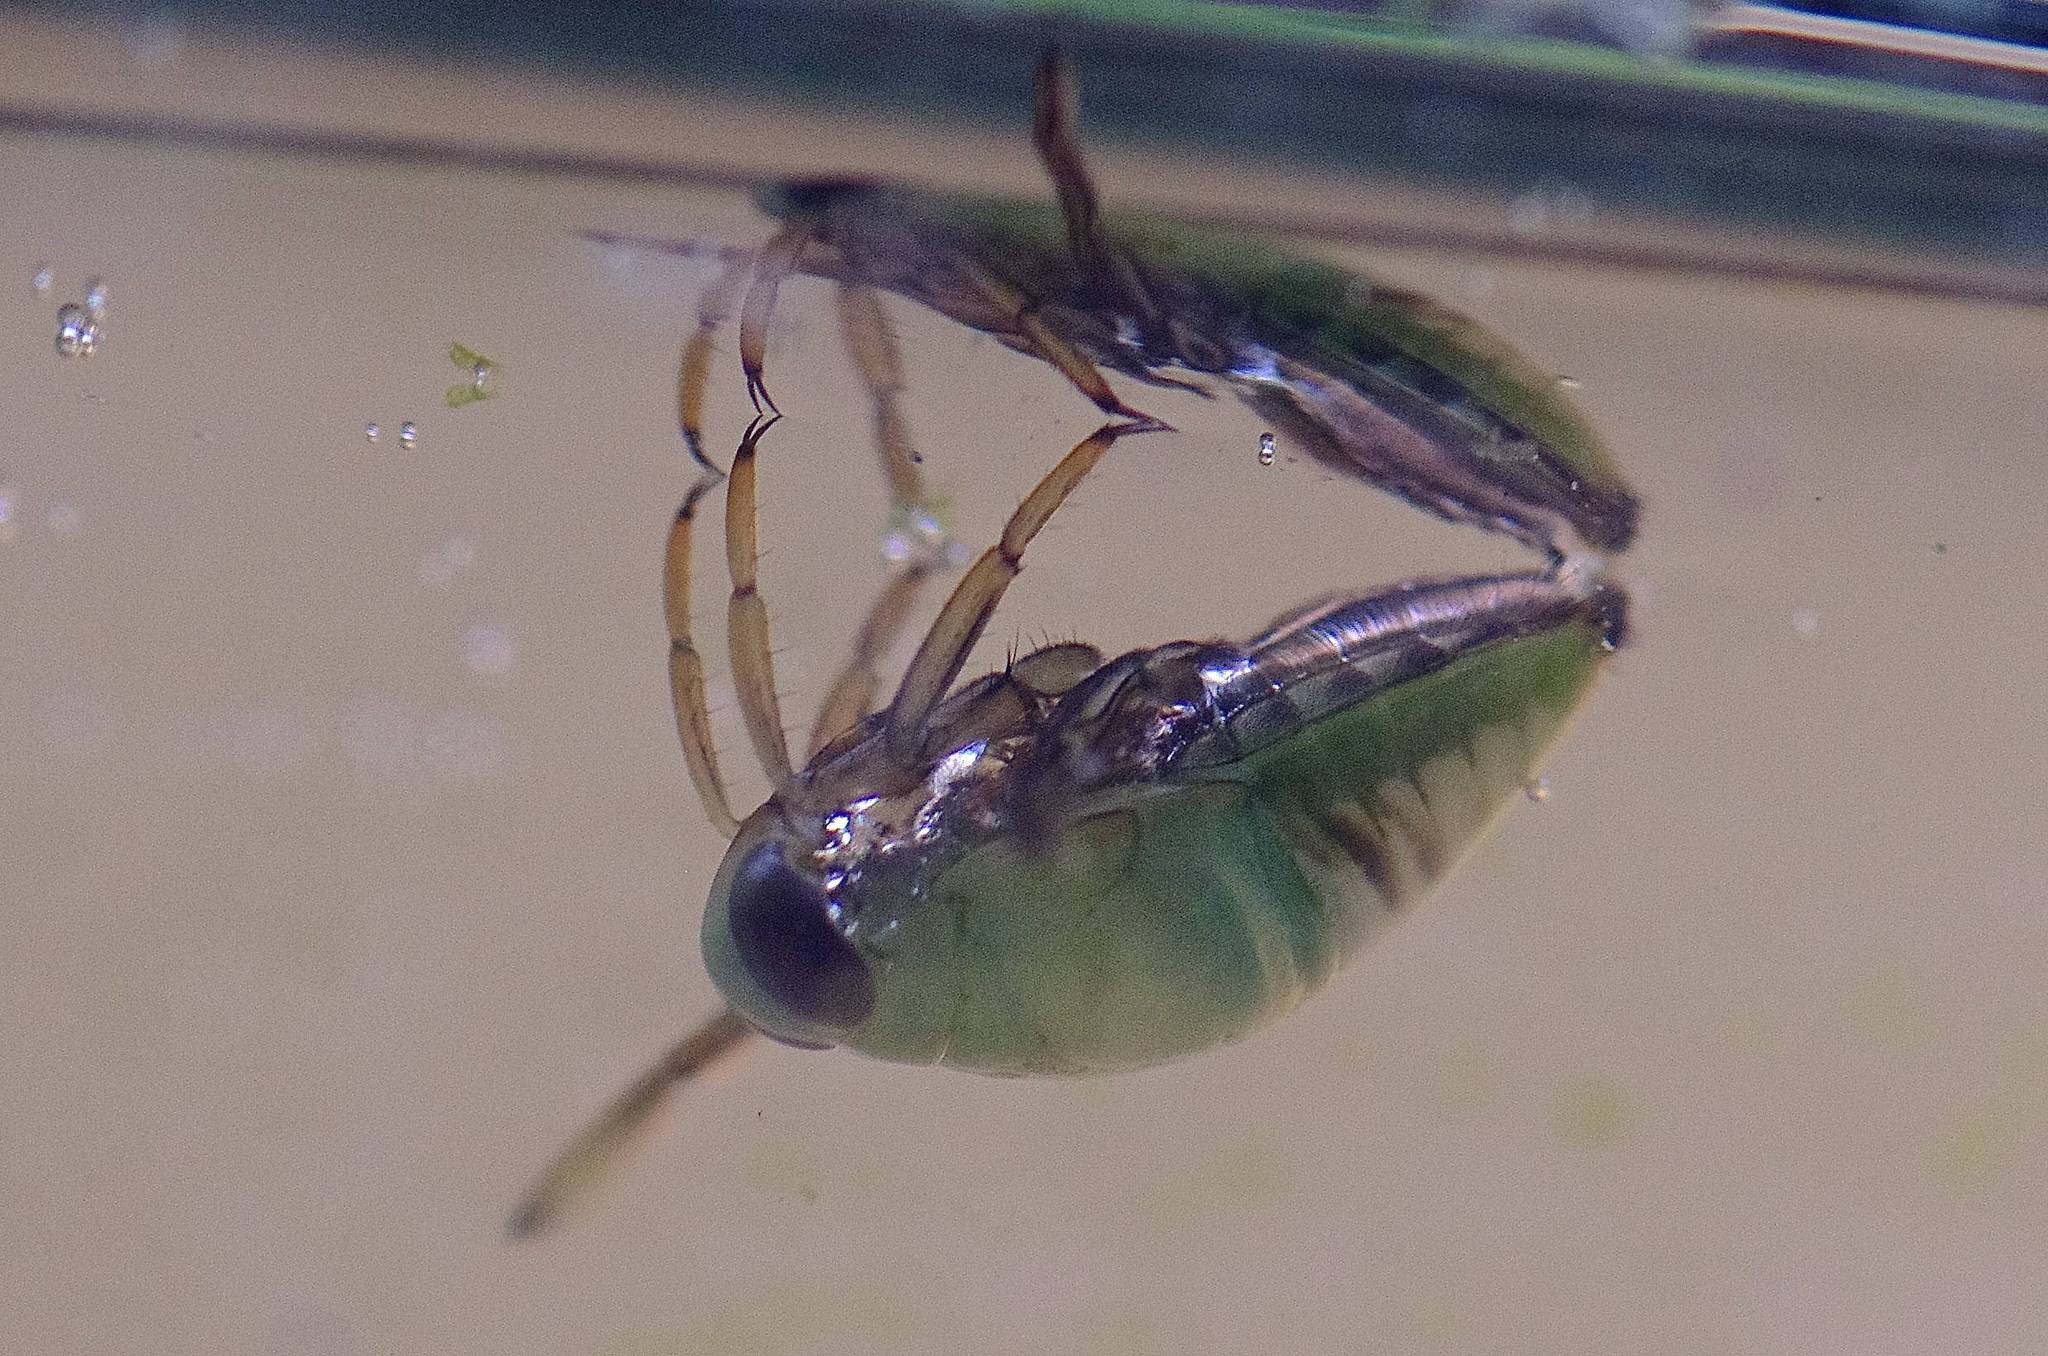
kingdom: Animalia
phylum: Arthropoda
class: Insecta
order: Hemiptera
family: Notonectidae
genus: Notonecta
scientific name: Notonecta
